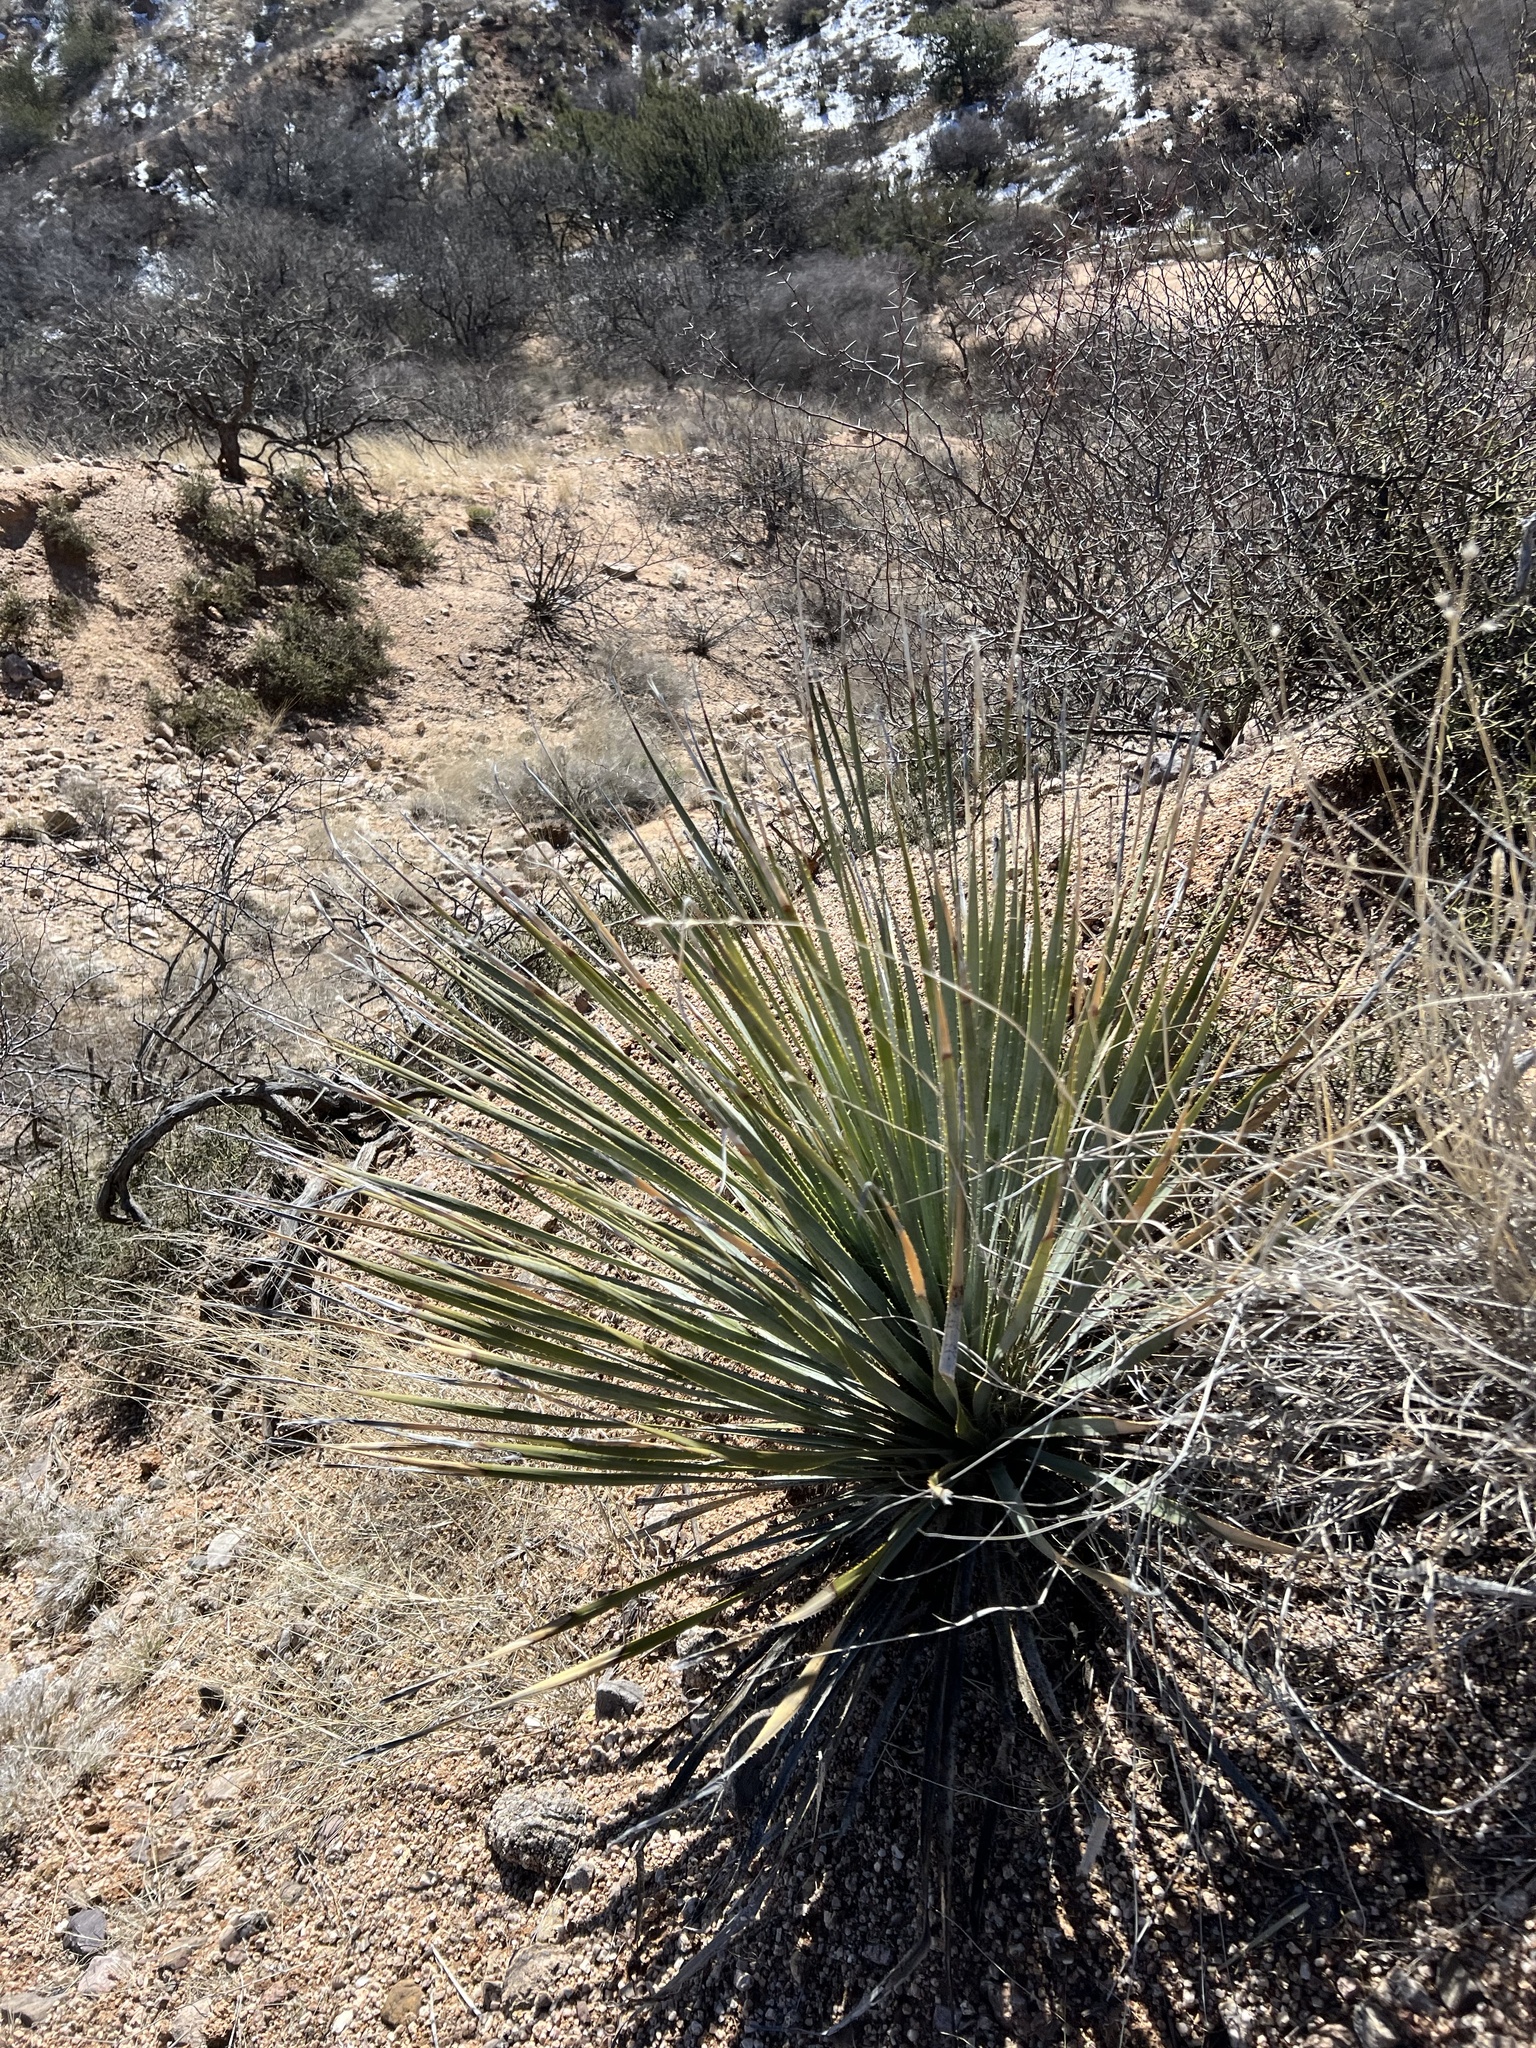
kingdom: Plantae
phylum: Tracheophyta
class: Liliopsida
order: Asparagales
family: Asparagaceae
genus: Yucca
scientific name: Yucca elata
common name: Palmella
